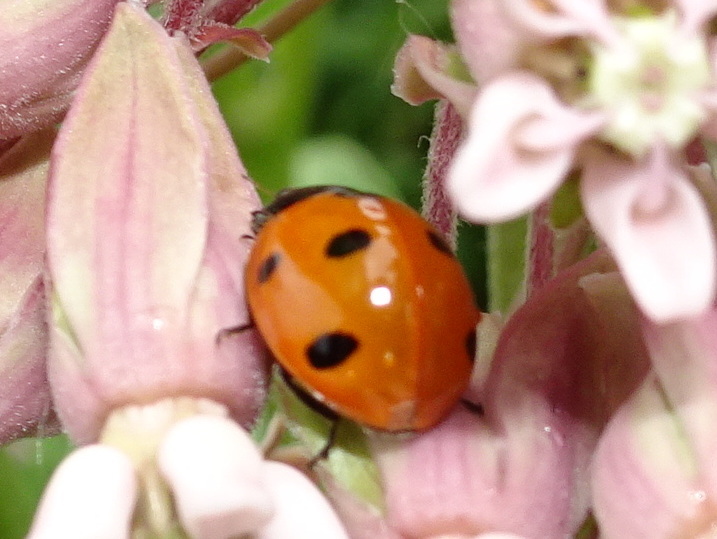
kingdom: Animalia
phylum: Arthropoda
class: Insecta
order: Coleoptera
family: Coccinellidae
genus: Coccinella
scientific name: Coccinella septempunctata
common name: Sevenspotted lady beetle
